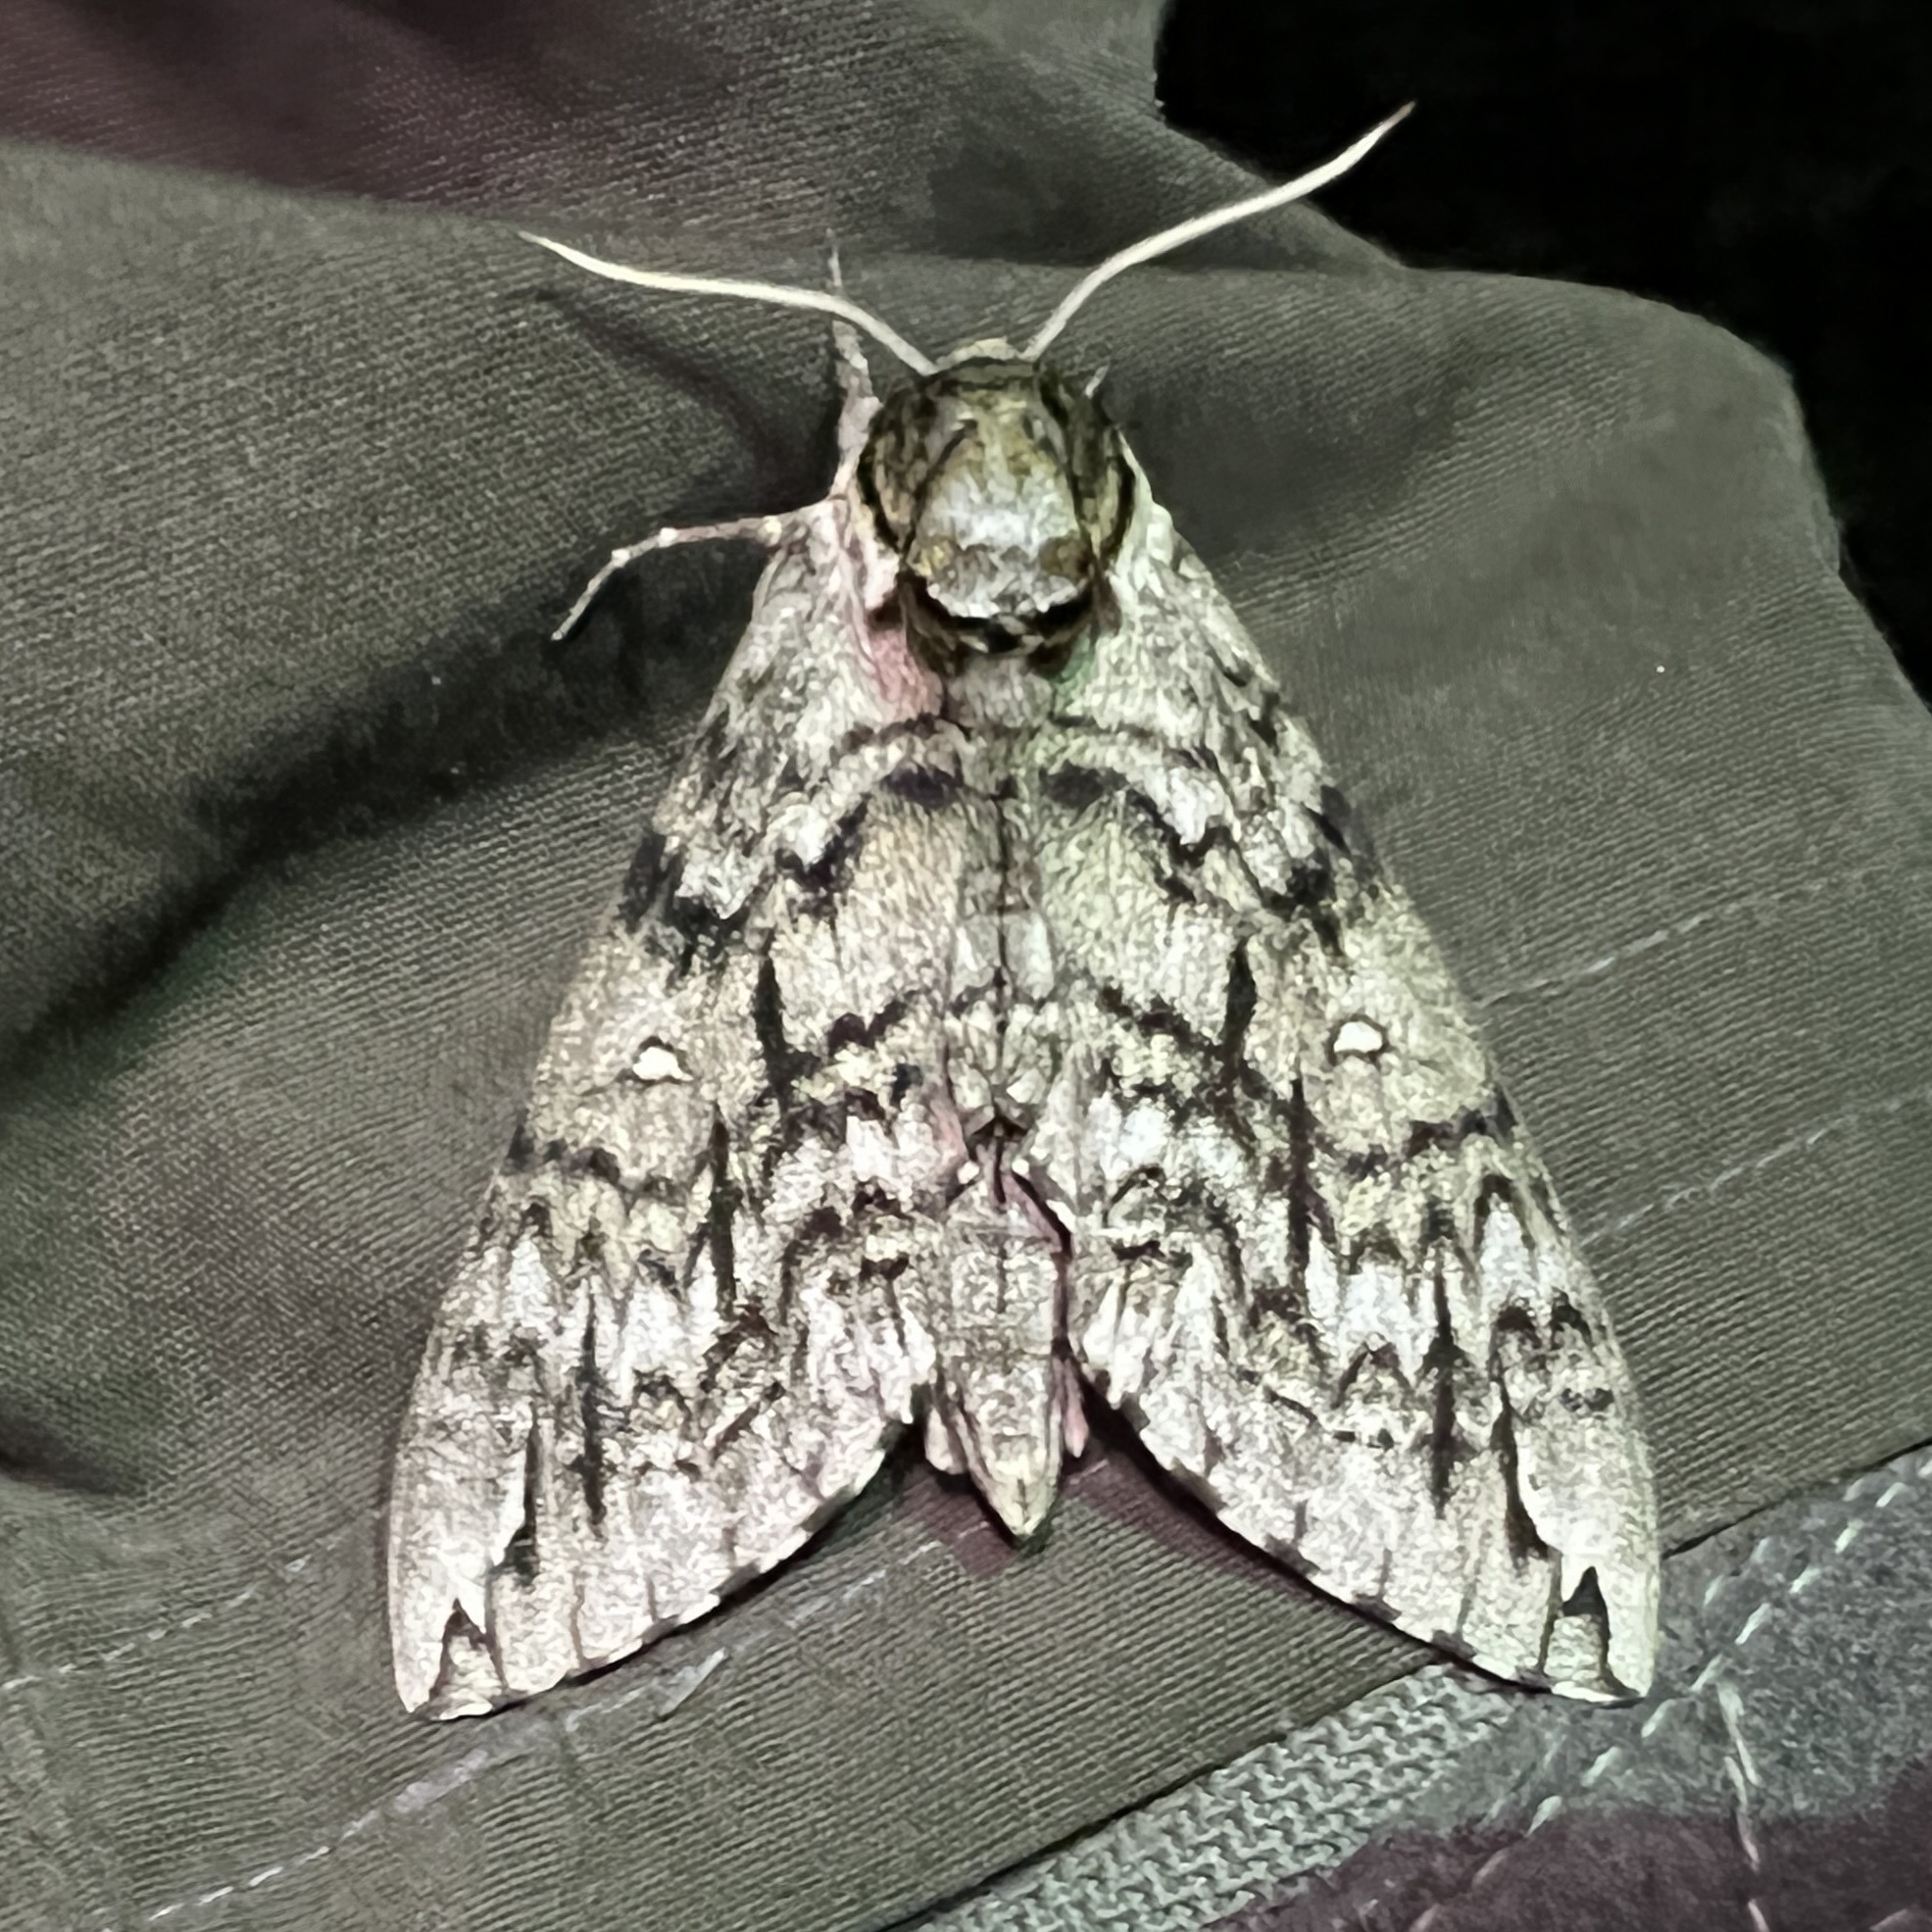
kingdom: Animalia
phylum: Arthropoda
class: Insecta
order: Lepidoptera
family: Sphingidae
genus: Ceratomia
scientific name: Ceratomia undulosa
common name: Waved sphinx
